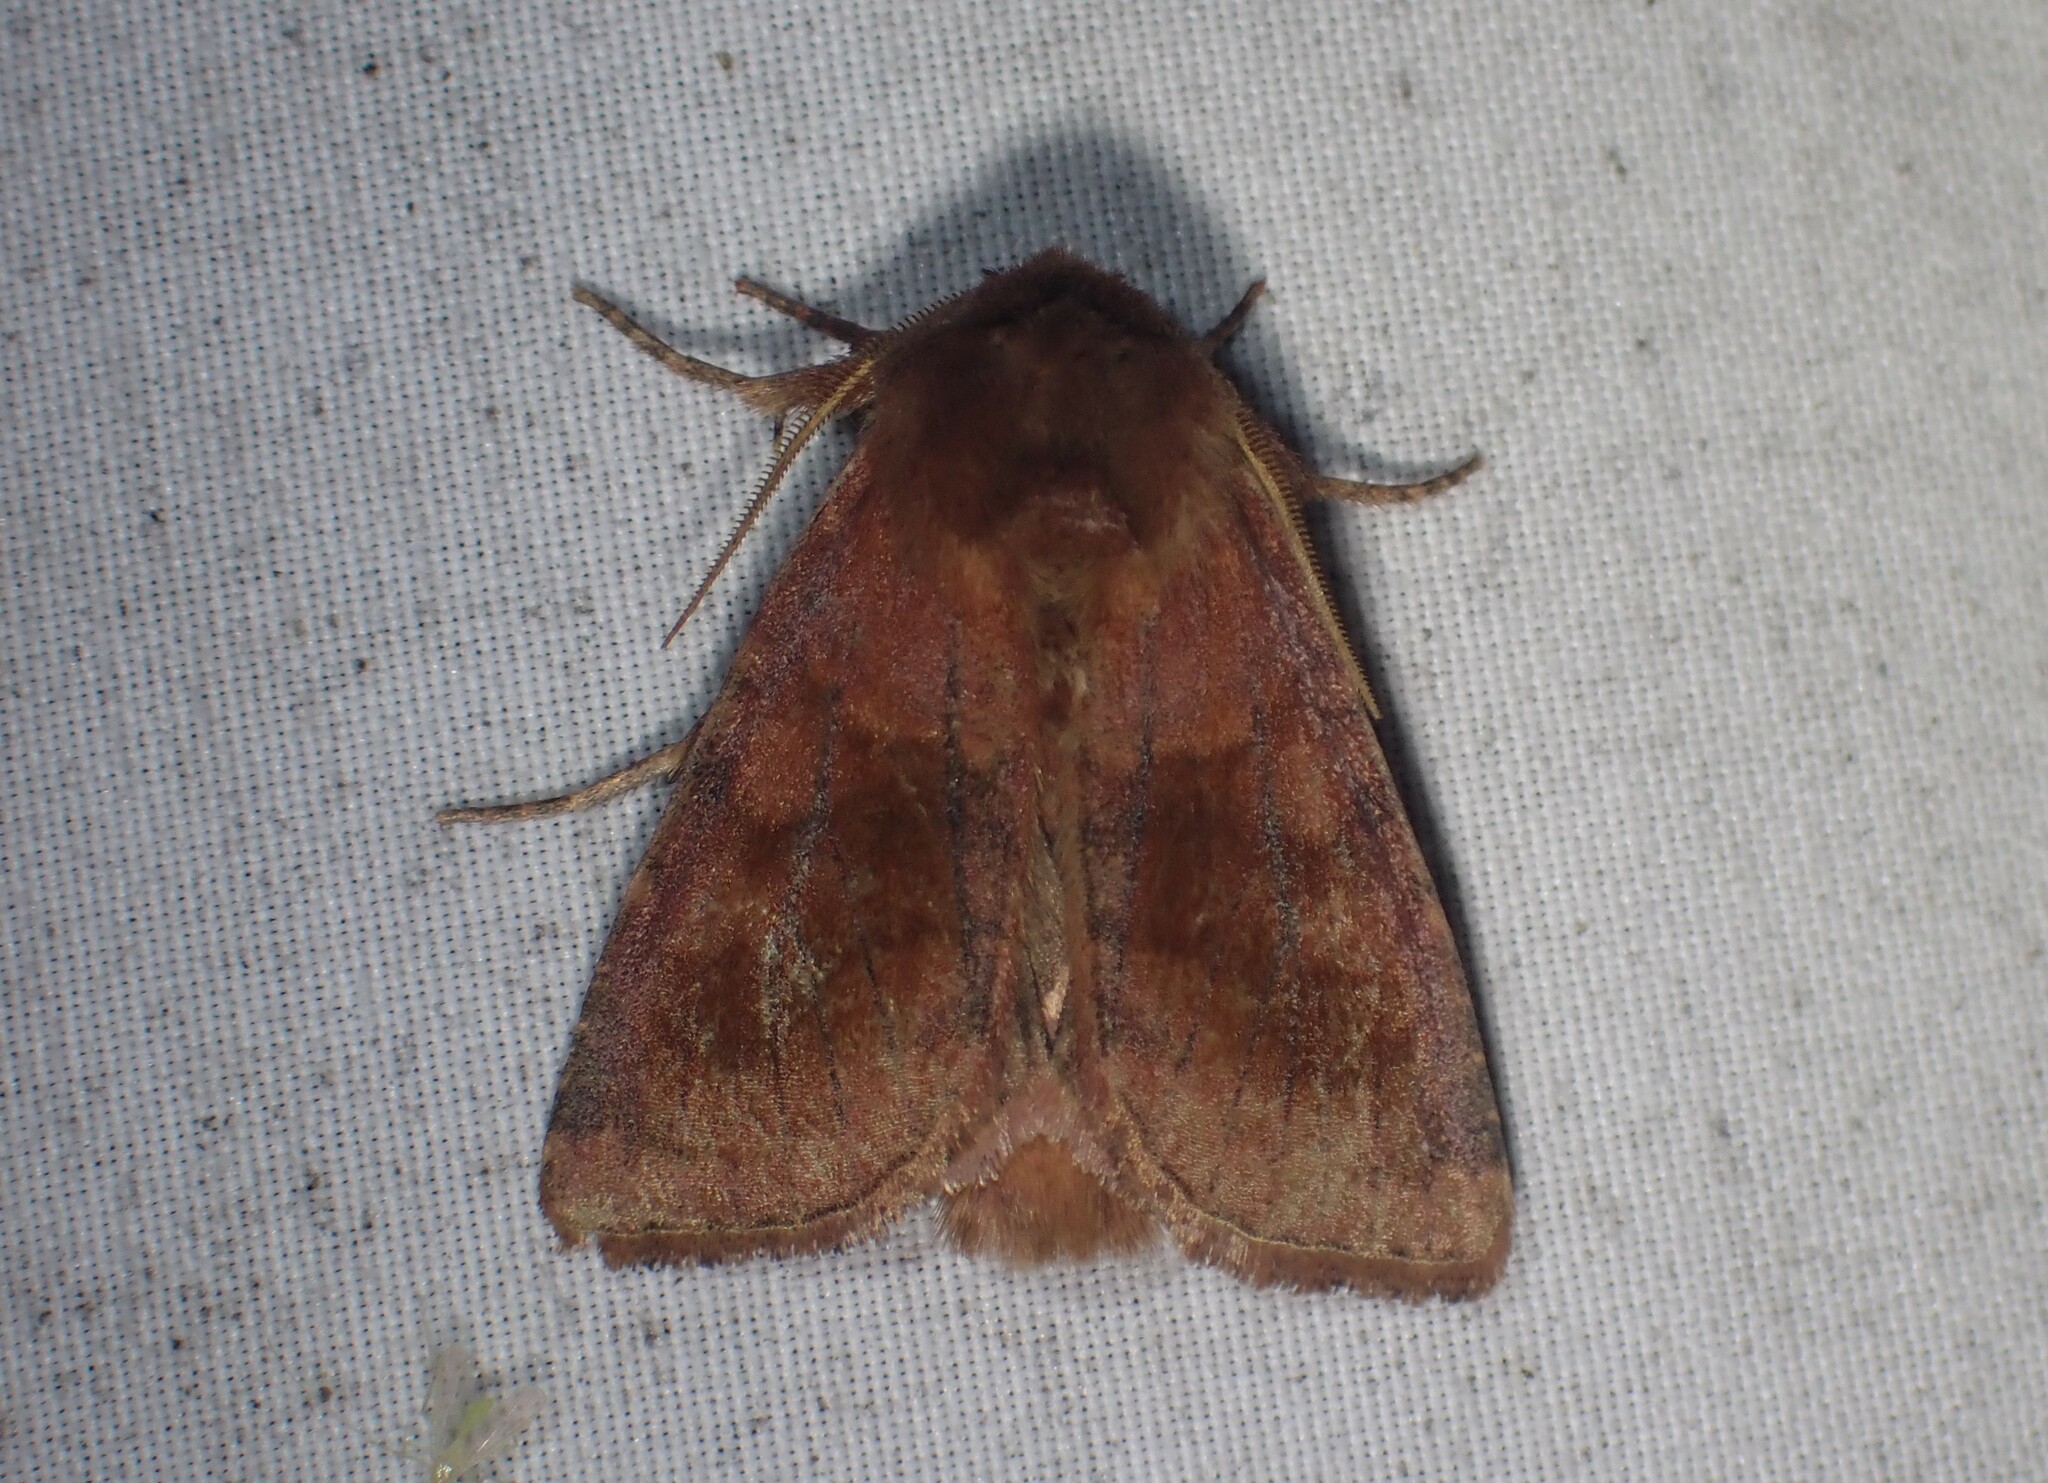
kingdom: Animalia
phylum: Arthropoda
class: Insecta
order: Lepidoptera
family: Noctuidae
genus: Nephelodes
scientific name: Nephelodes minians
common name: Bronzed cutworm
